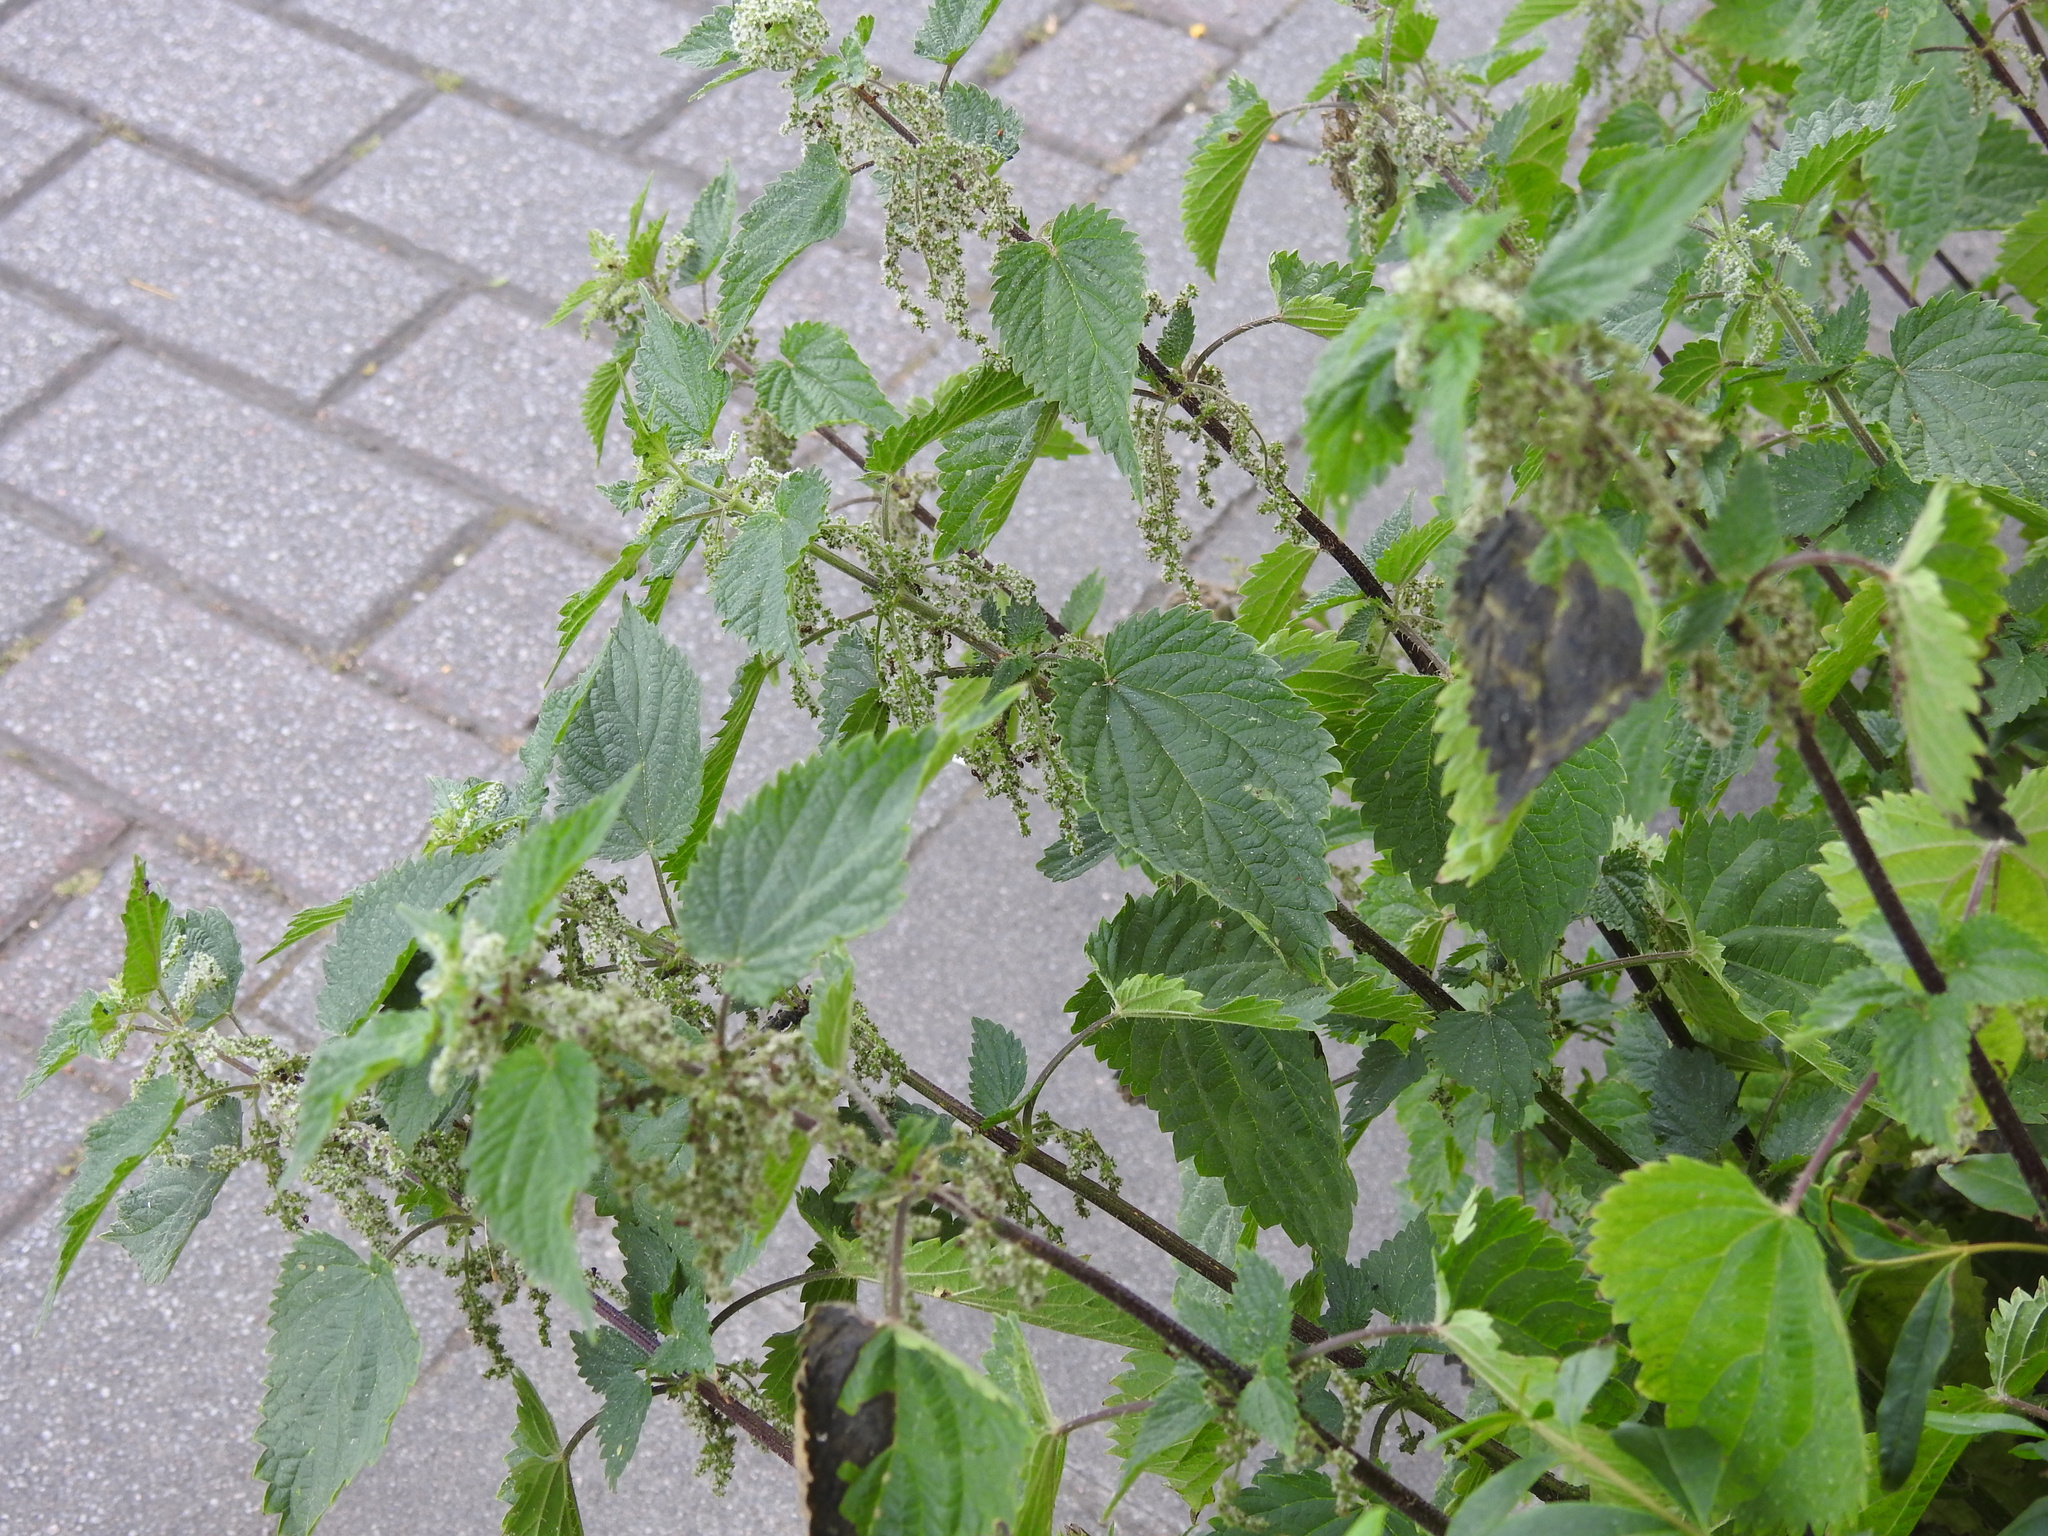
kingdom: Plantae
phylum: Tracheophyta
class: Magnoliopsida
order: Rosales
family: Urticaceae
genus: Urtica
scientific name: Urtica dioica
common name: Common nettle
